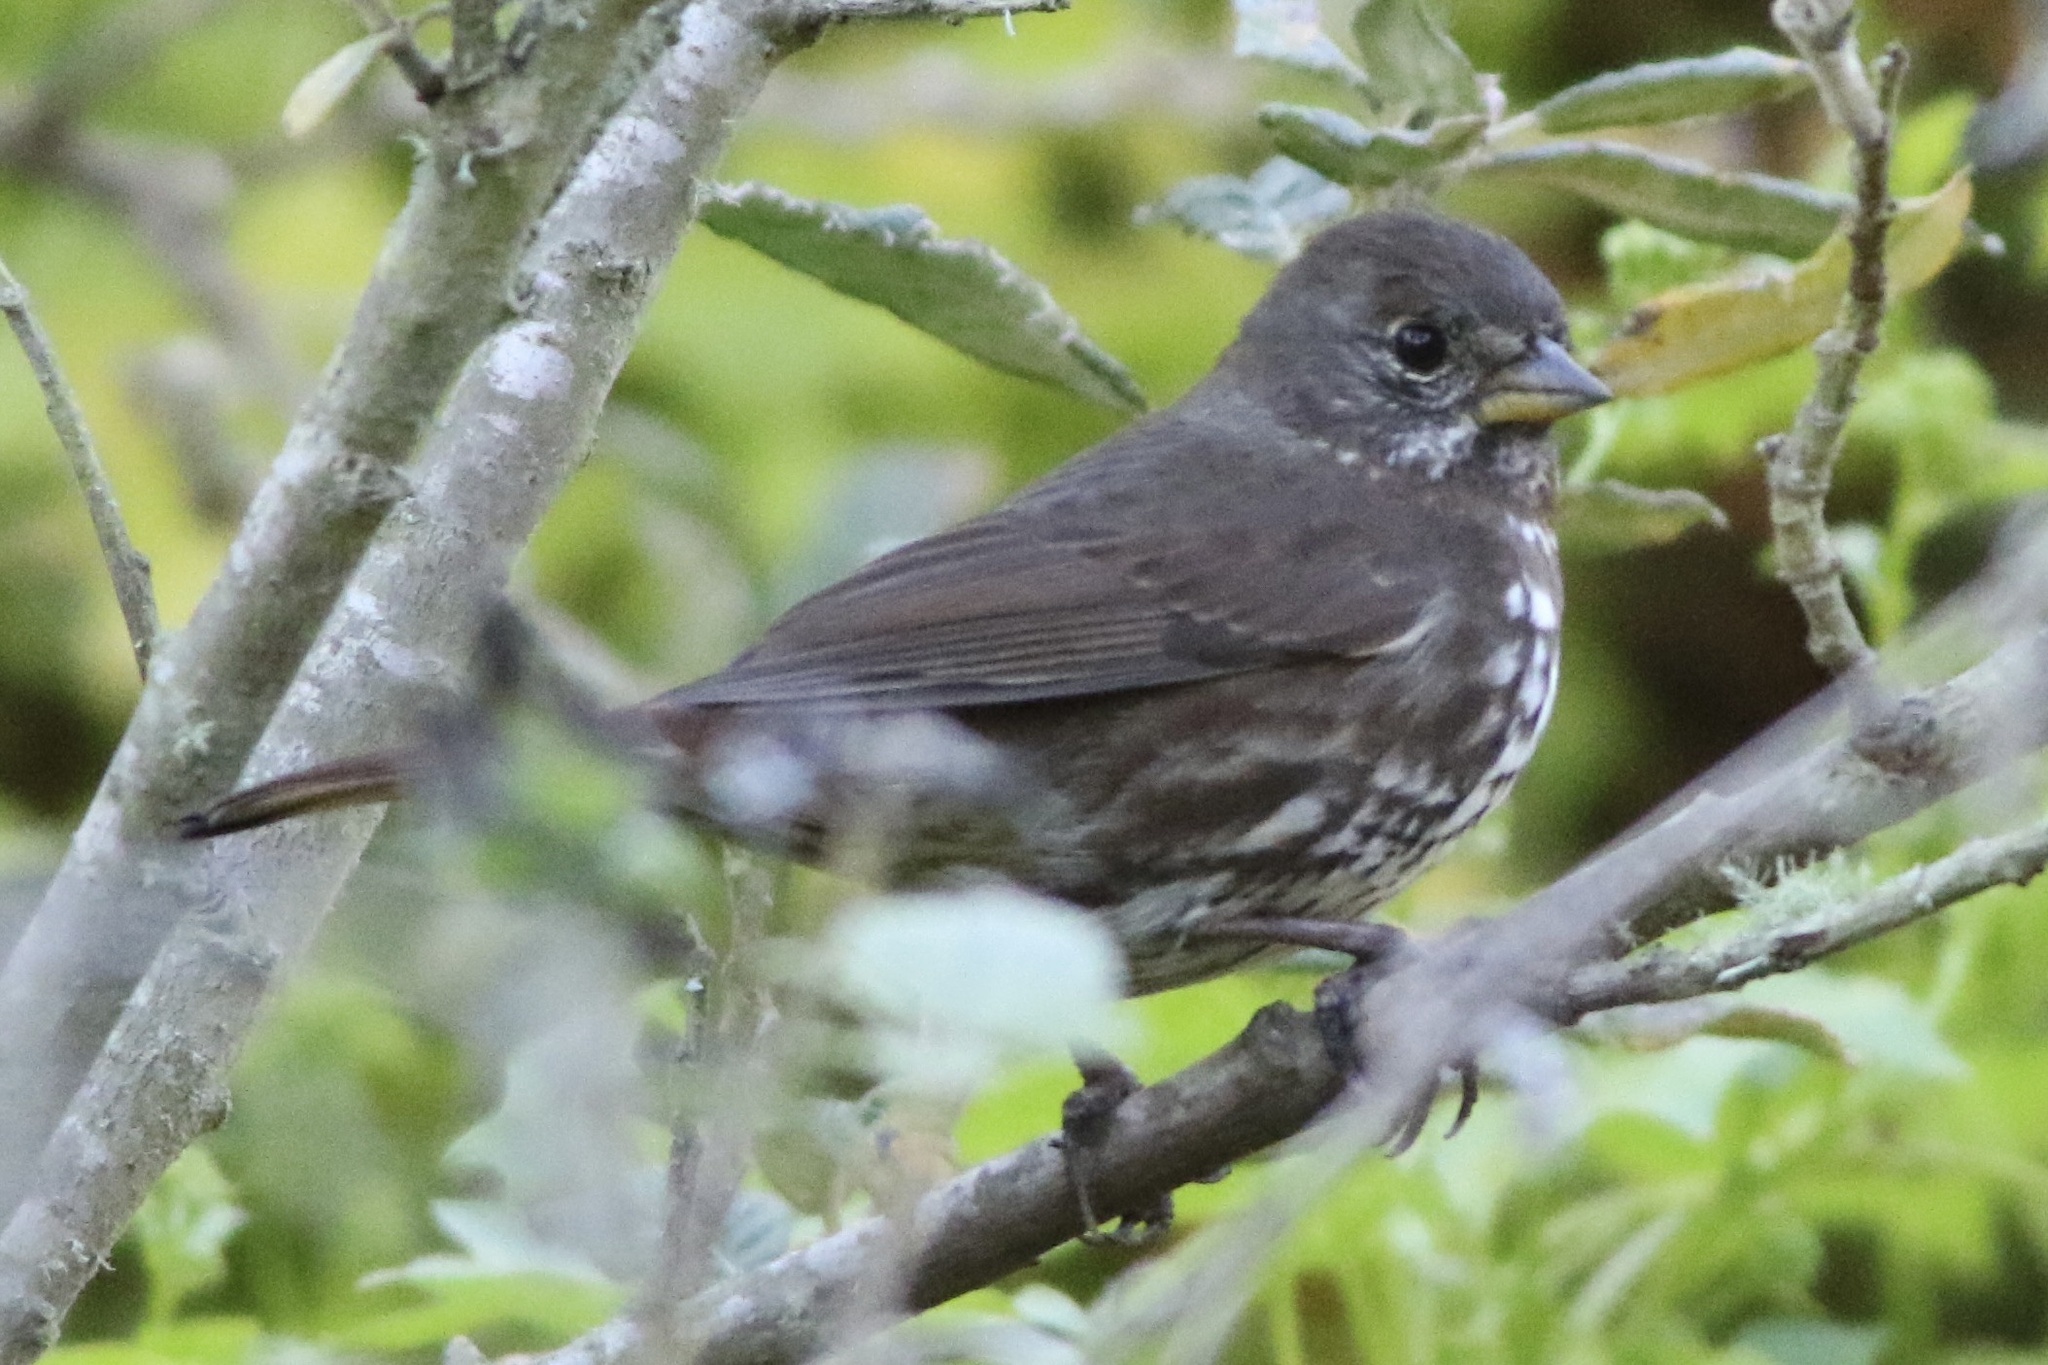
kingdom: Animalia
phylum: Chordata
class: Aves
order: Passeriformes
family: Passerellidae
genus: Passerella
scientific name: Passerella iliaca
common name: Fox sparrow
